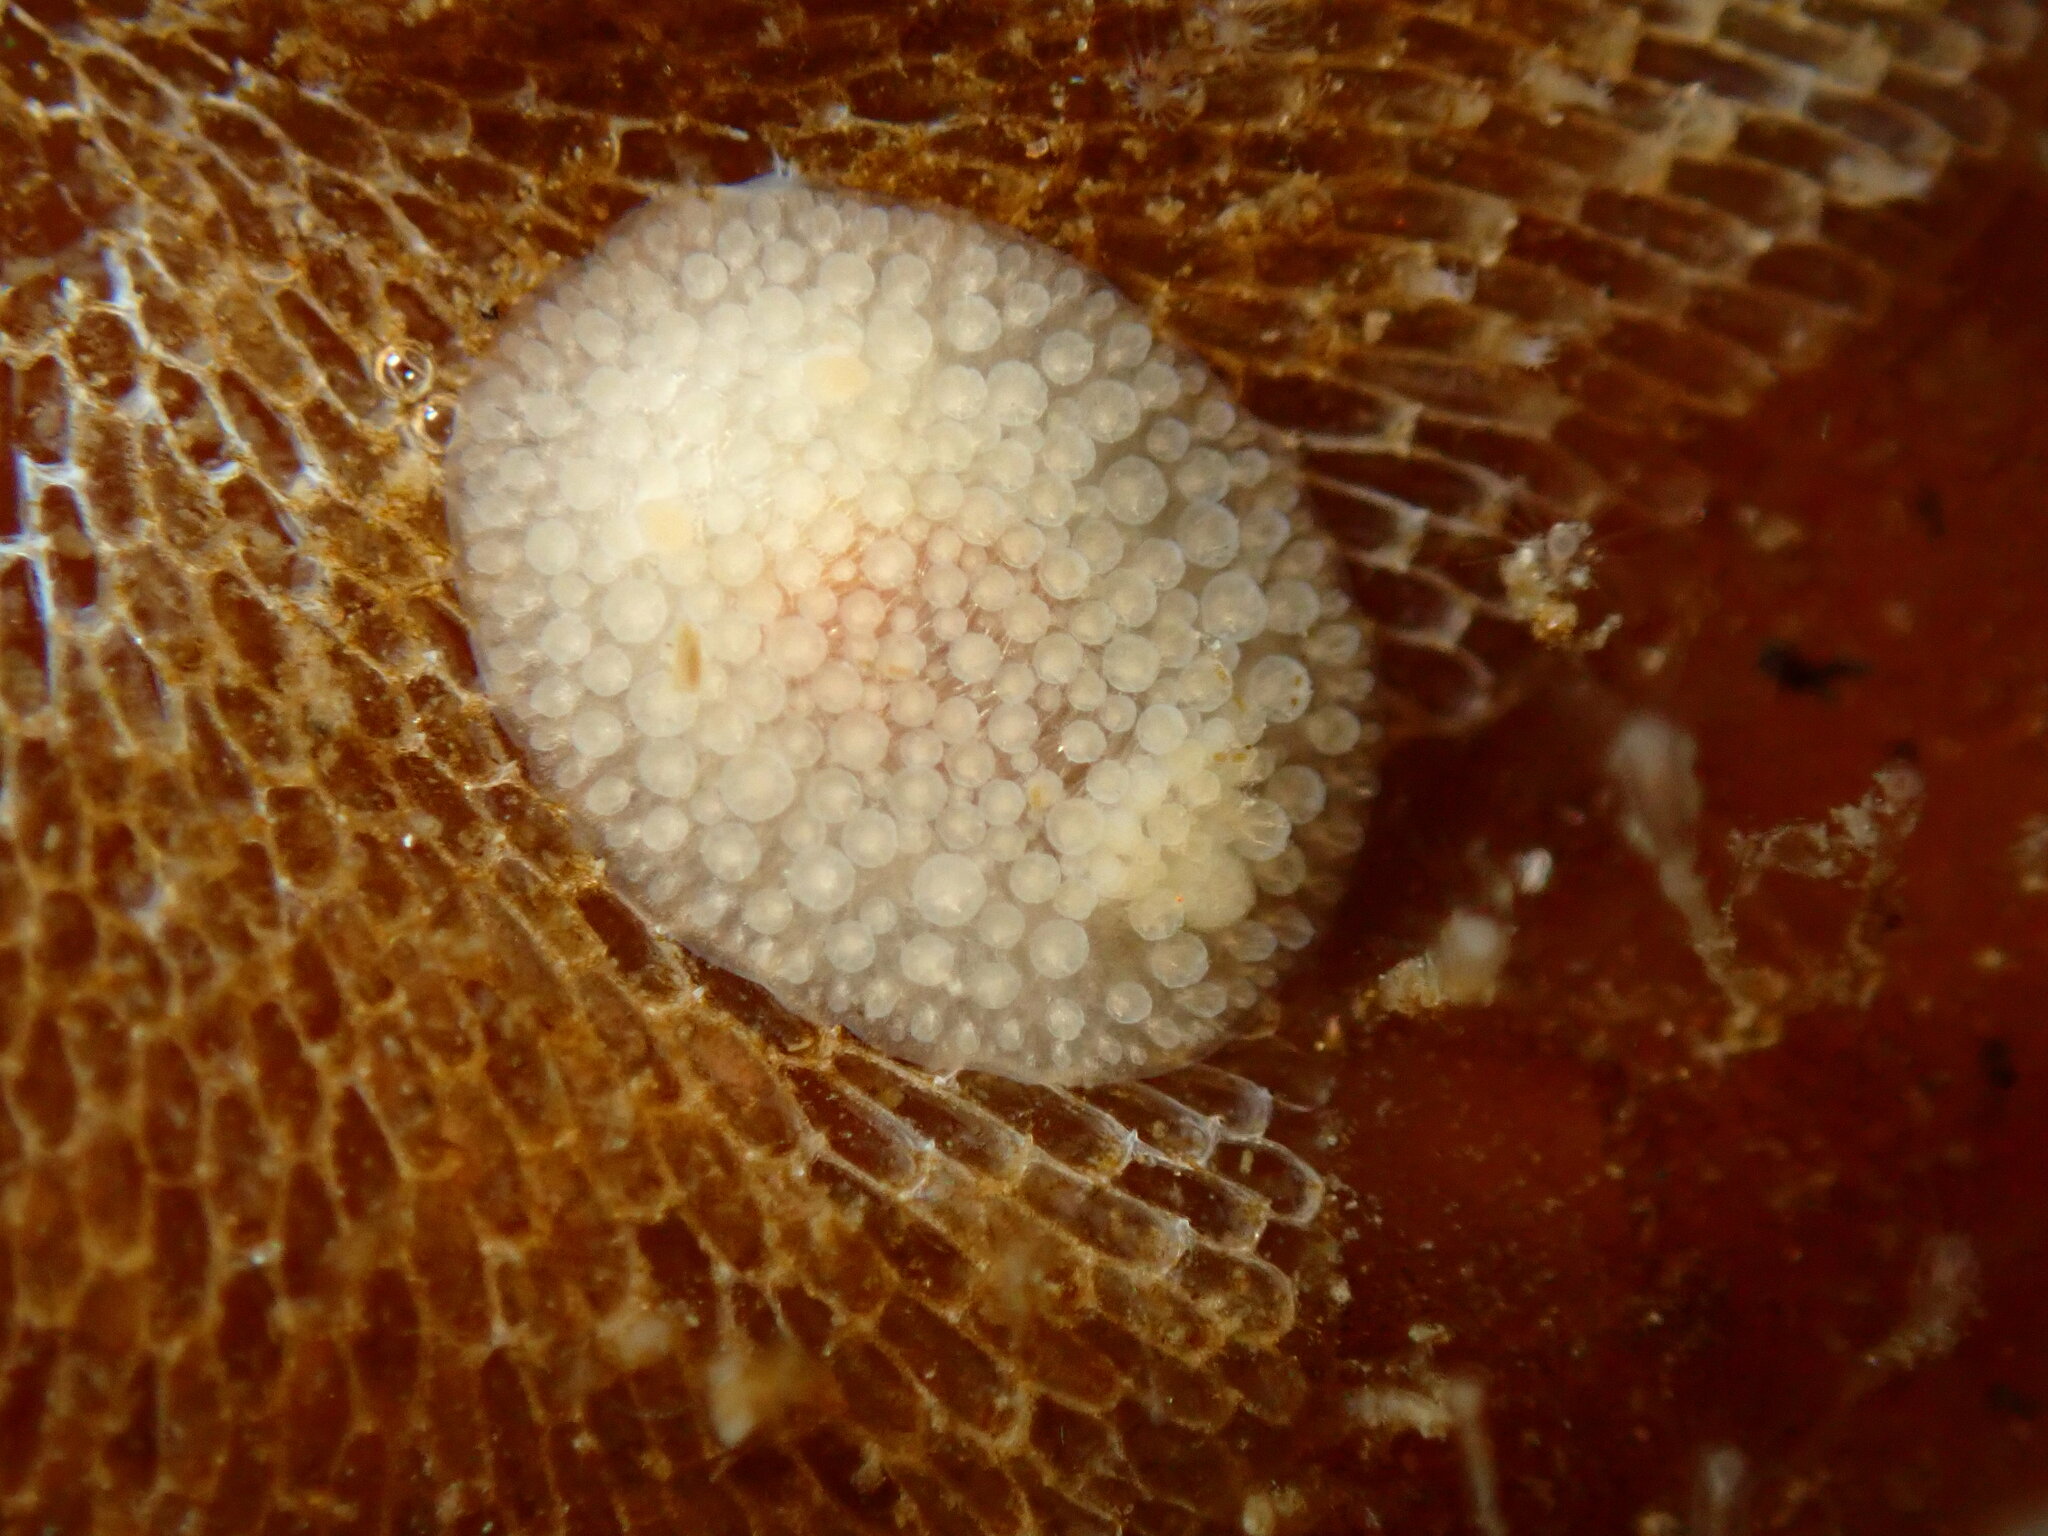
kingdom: Animalia
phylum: Mollusca
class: Gastropoda
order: Nudibranchia
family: Onchidorididae
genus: Atalodoris
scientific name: Atalodoris jannae
